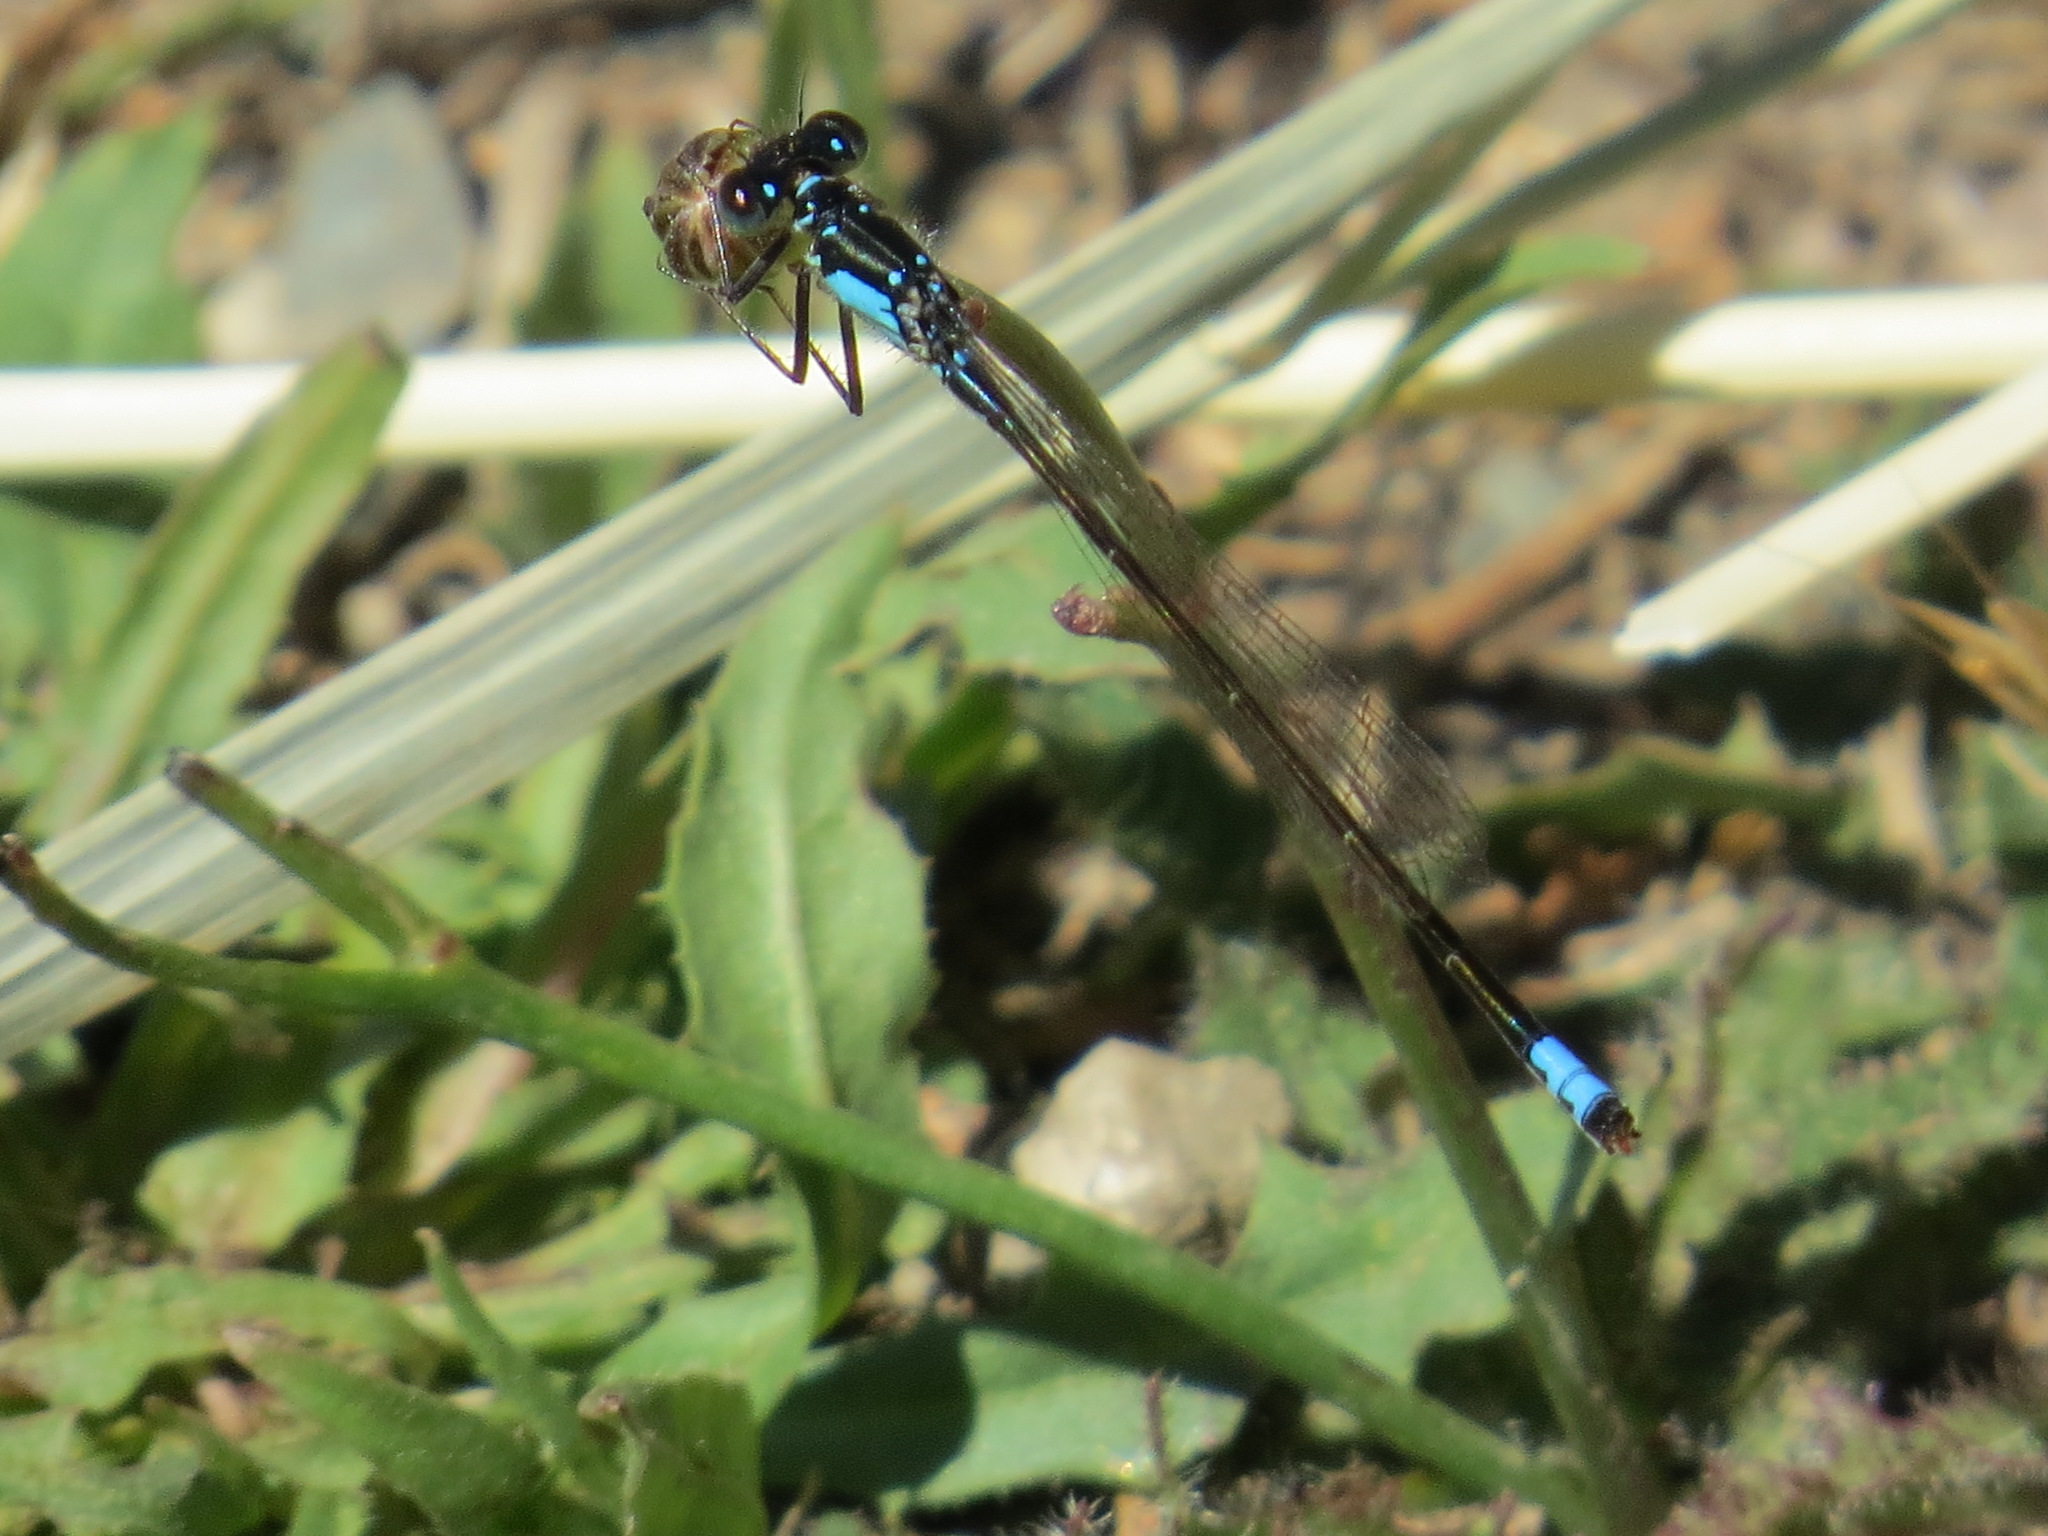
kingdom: Animalia
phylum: Arthropoda
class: Insecta
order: Odonata
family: Coenagrionidae
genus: Ischnura
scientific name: Ischnura cervula
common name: Pacific forktail
